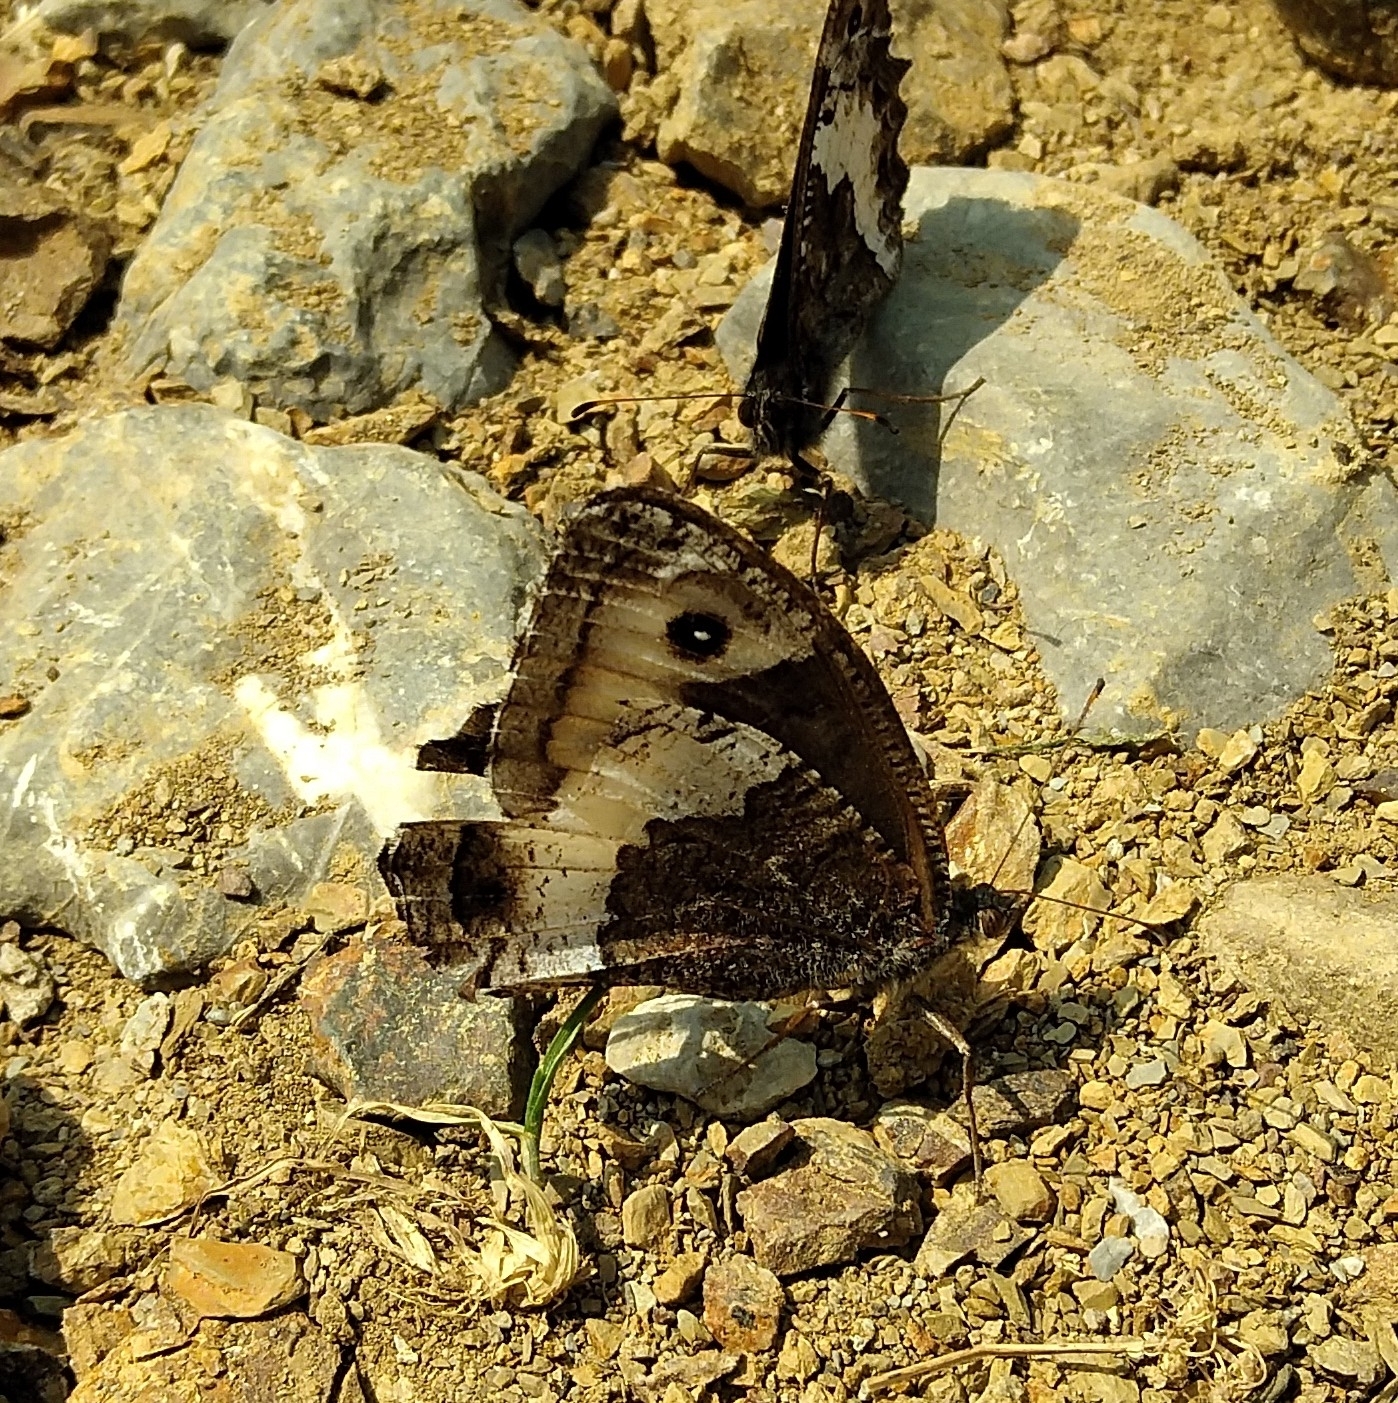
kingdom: Animalia
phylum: Arthropoda
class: Insecta
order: Lepidoptera
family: Nymphalidae
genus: Hipparchia
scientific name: Hipparchia fagi
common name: Woodland grayling
